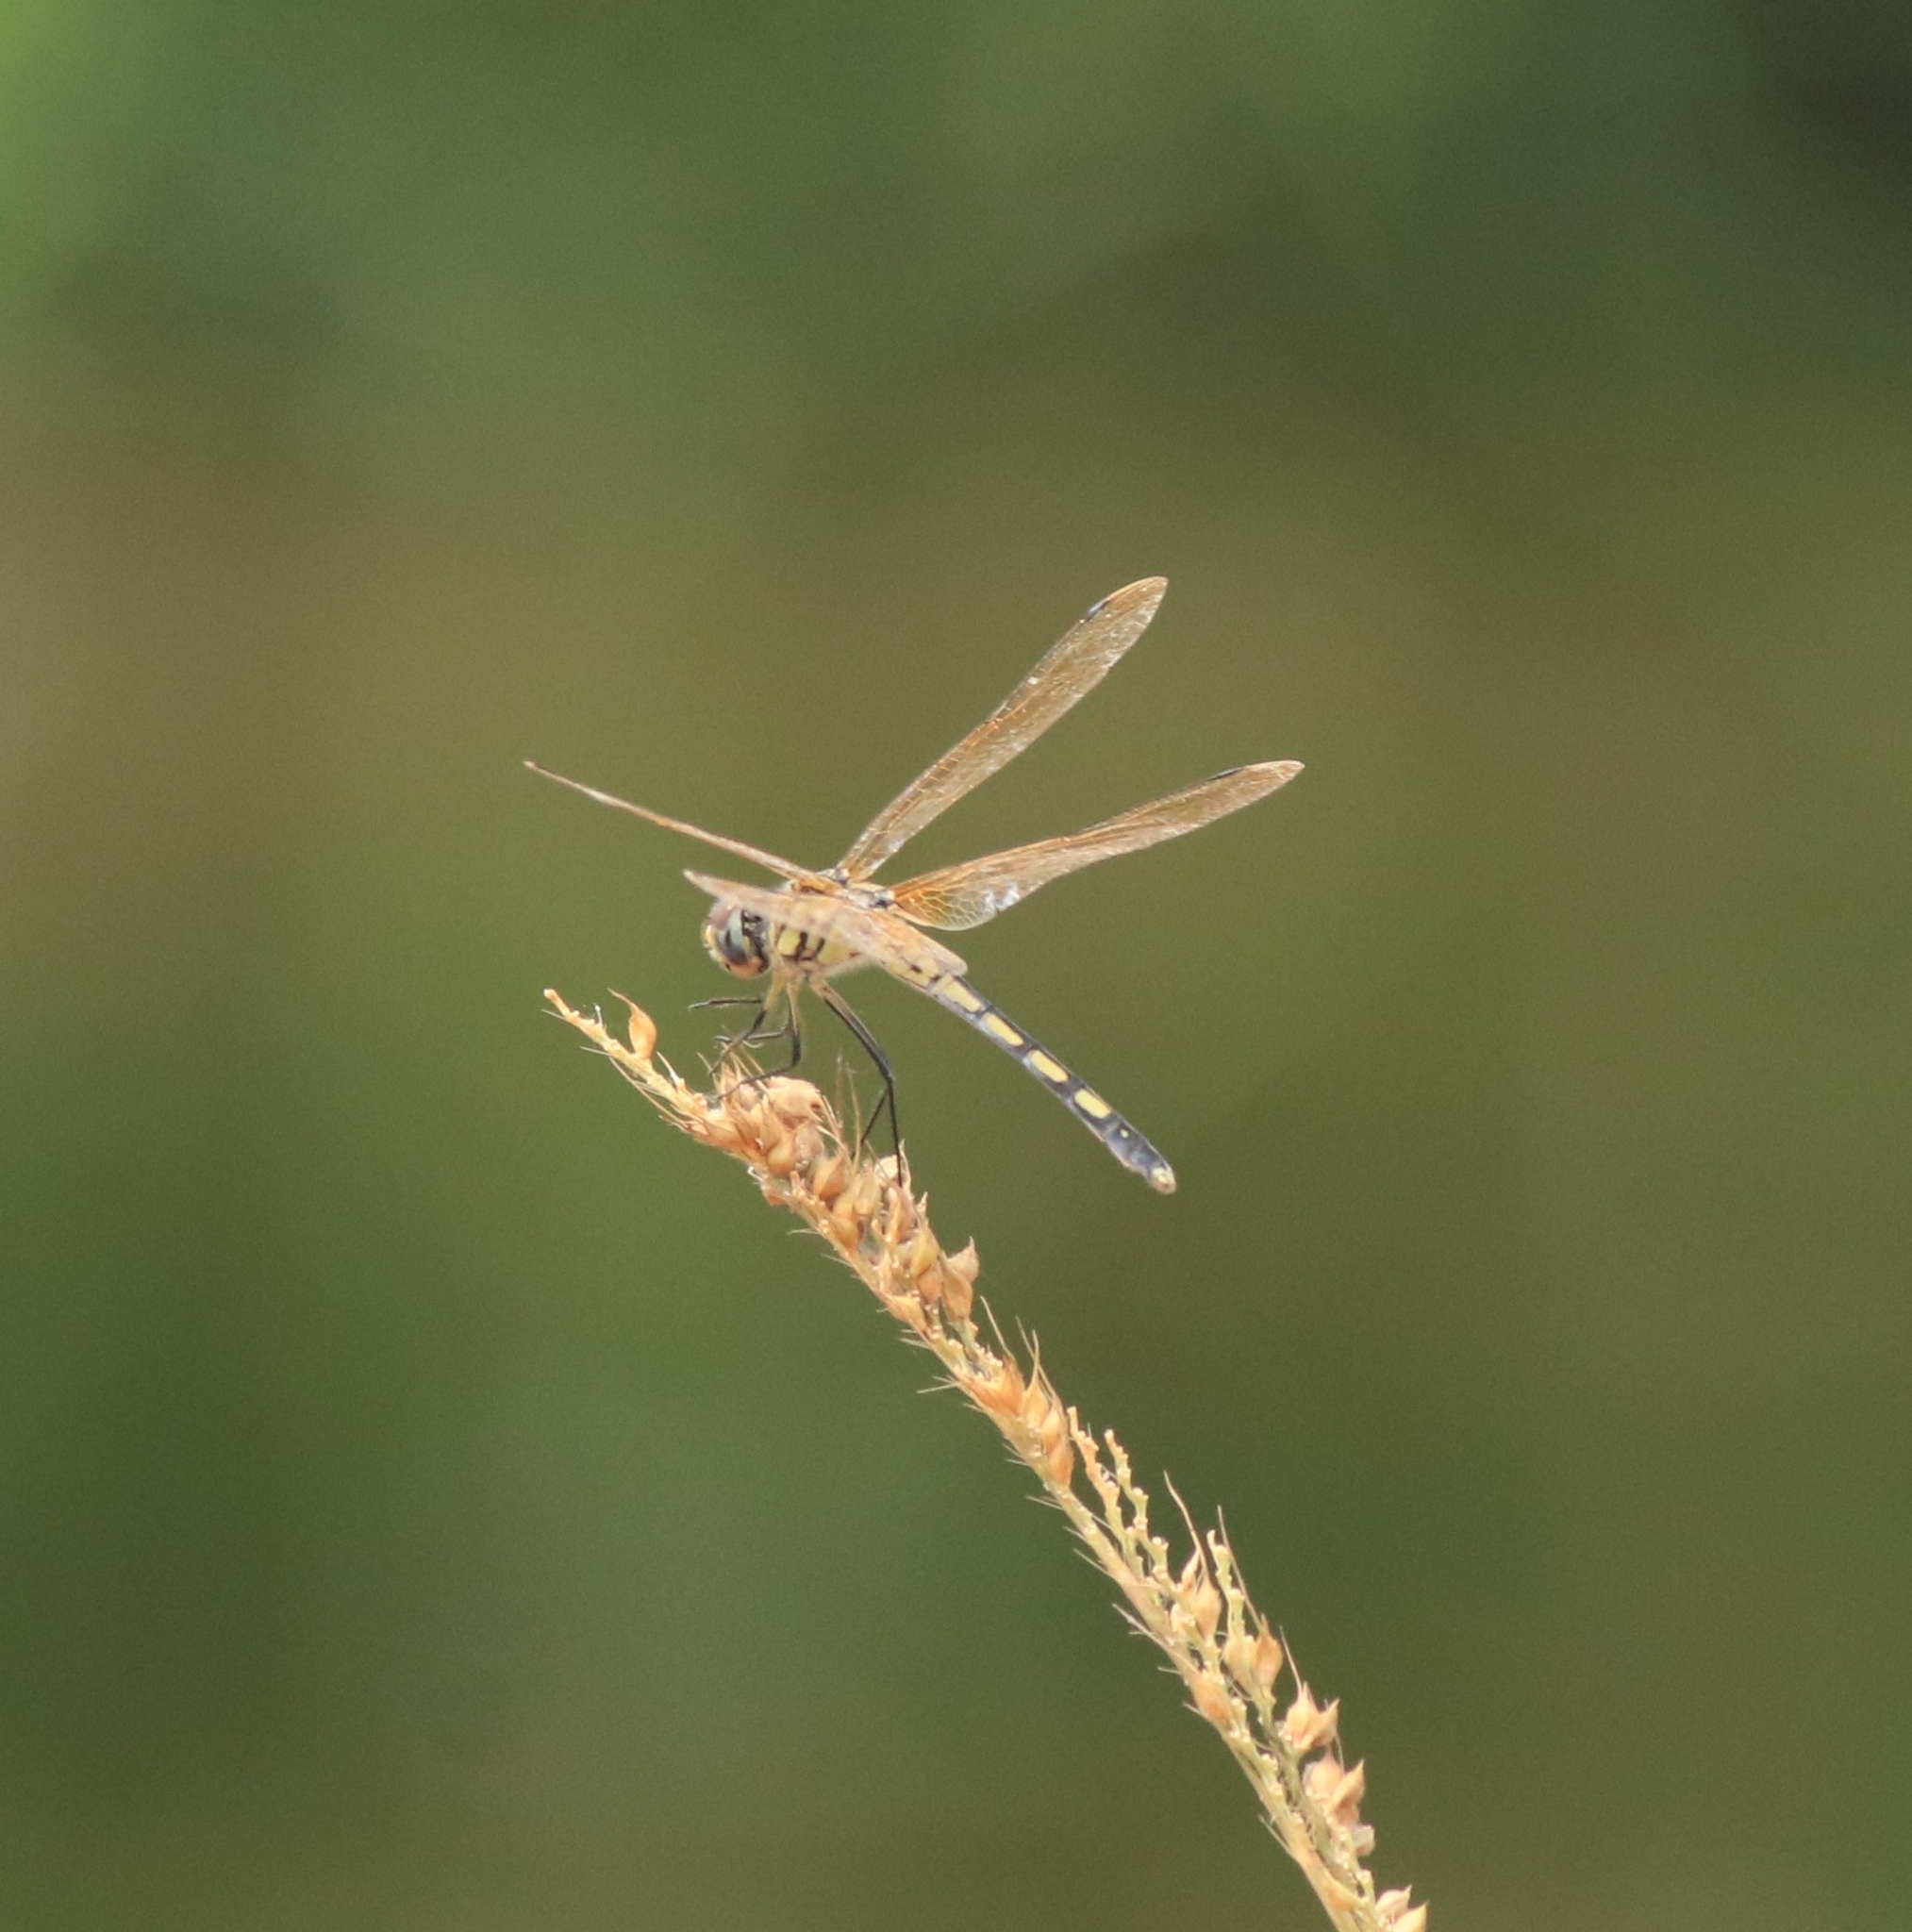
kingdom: Animalia
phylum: Arthropoda
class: Insecta
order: Odonata
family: Libellulidae
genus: Trithemis
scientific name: Trithemis pallidinervis
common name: Dancing dropwing
